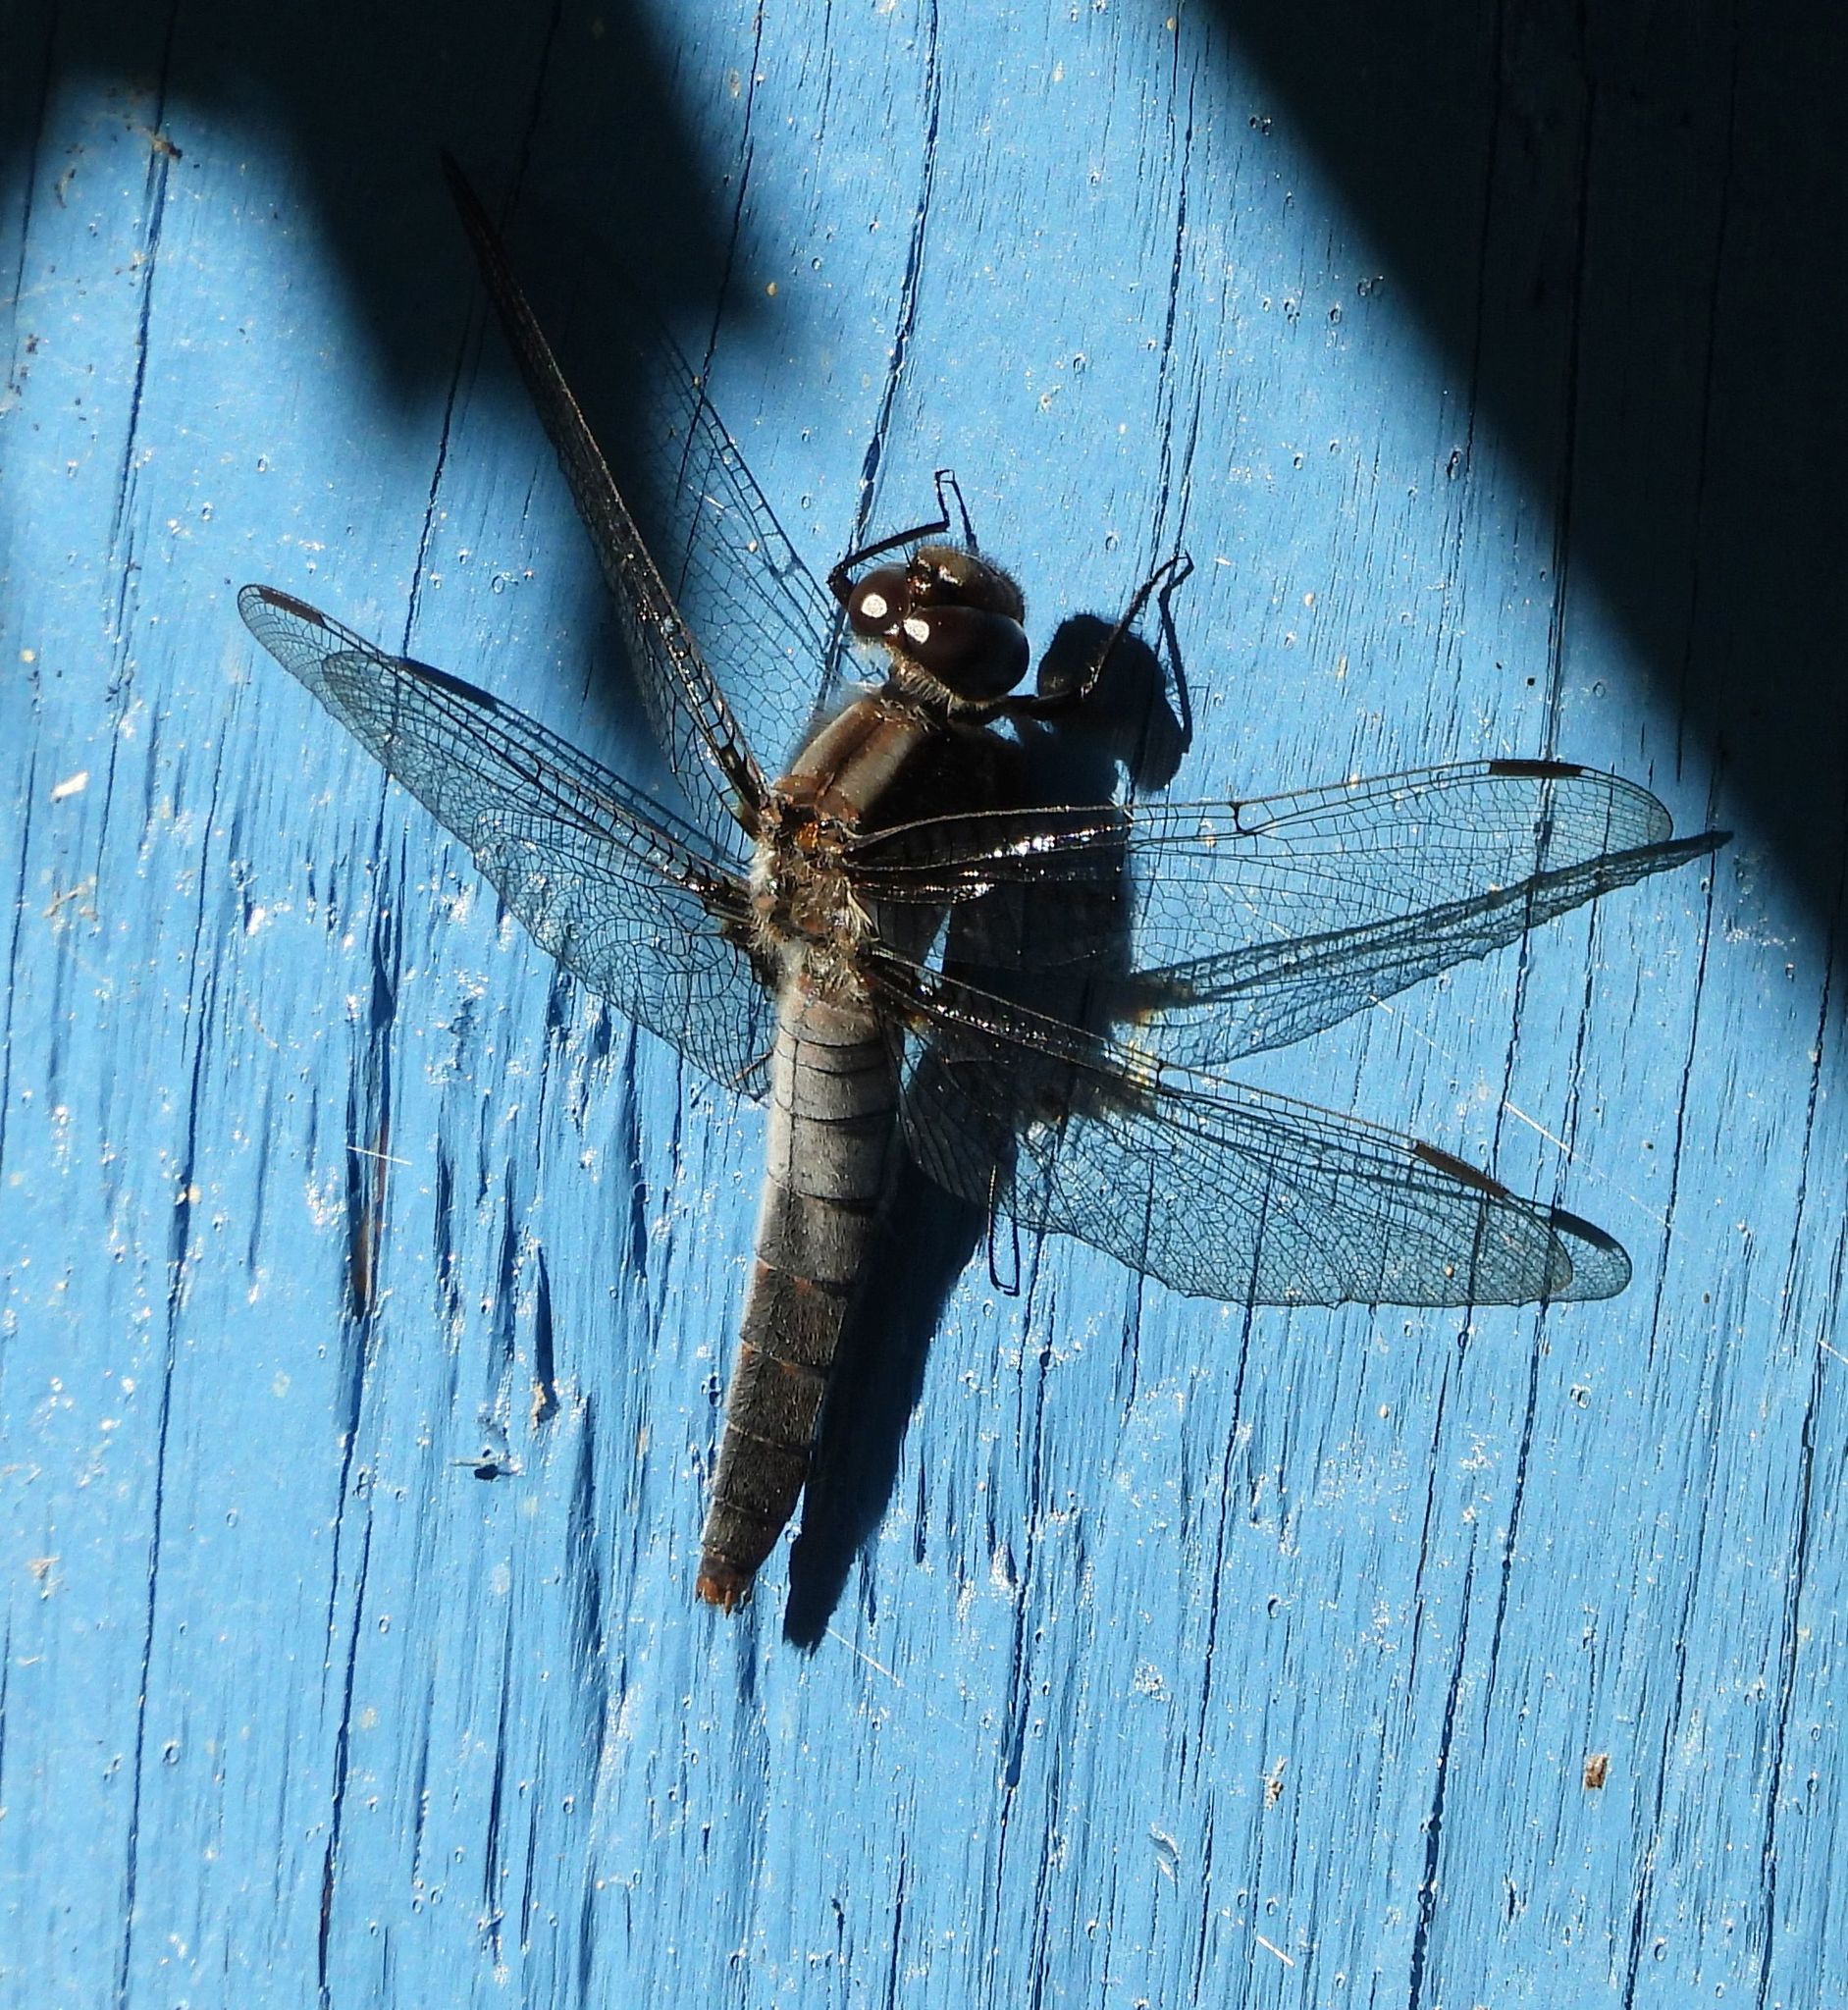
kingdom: Animalia
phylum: Arthropoda
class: Insecta
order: Odonata
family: Libellulidae
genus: Ladona
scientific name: Ladona julia
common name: Chalk-fronted corporal
